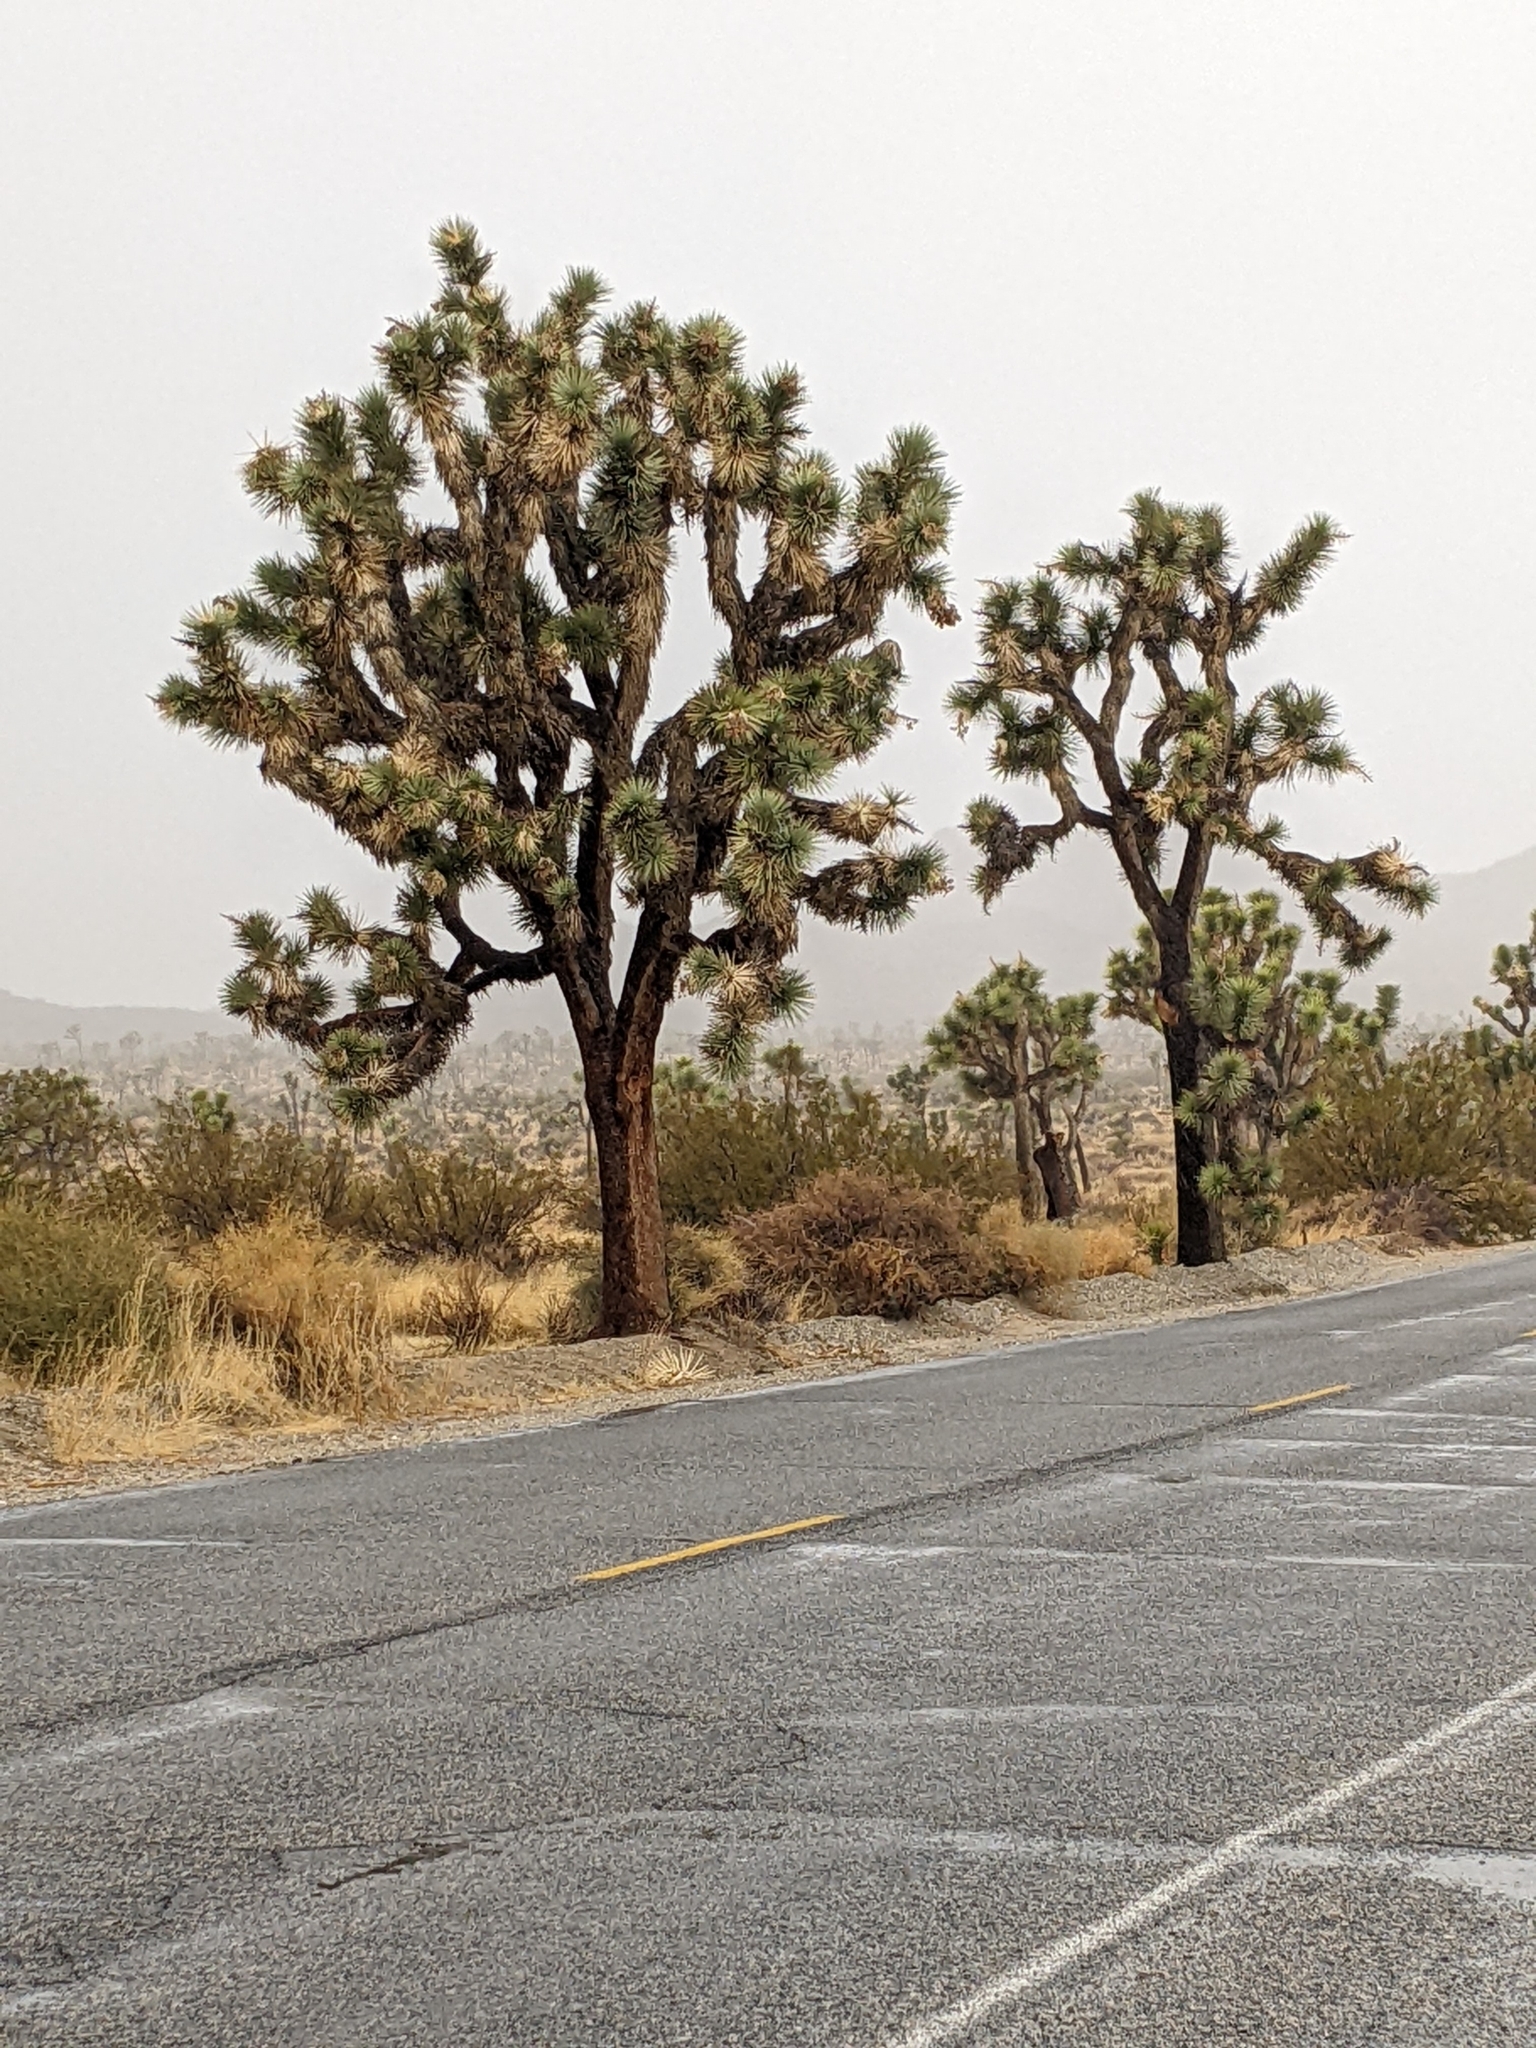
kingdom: Plantae
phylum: Tracheophyta
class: Liliopsida
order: Asparagales
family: Asparagaceae
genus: Yucca
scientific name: Yucca brevifolia
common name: Joshua tree
